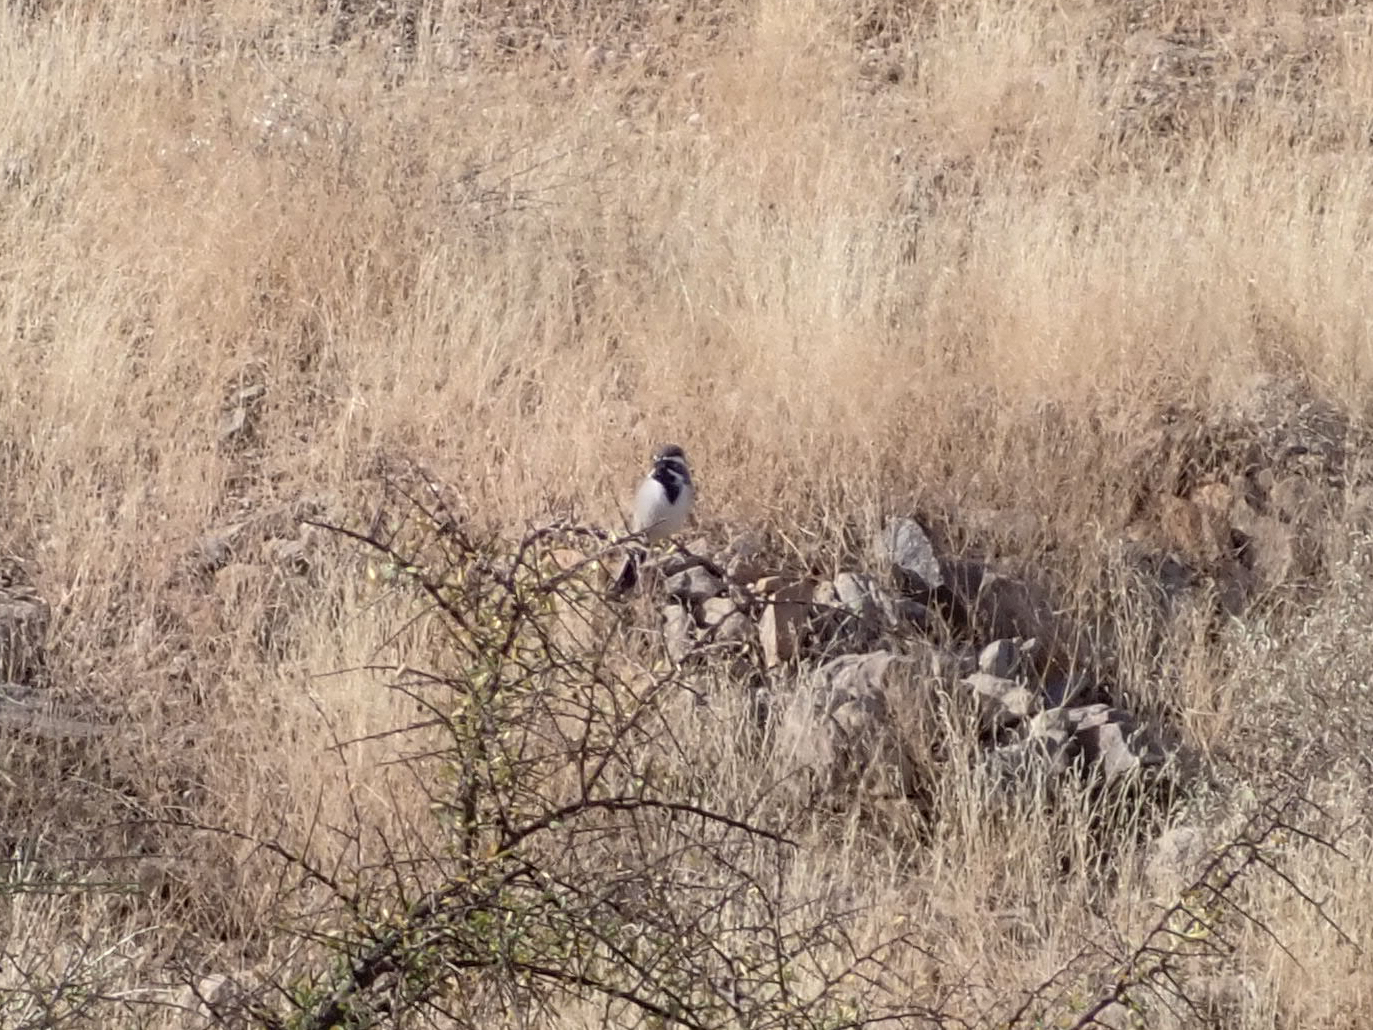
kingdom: Animalia
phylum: Chordata
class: Aves
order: Passeriformes
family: Passerellidae
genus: Amphispiza
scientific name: Amphispiza bilineata
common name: Black-throated sparrow
